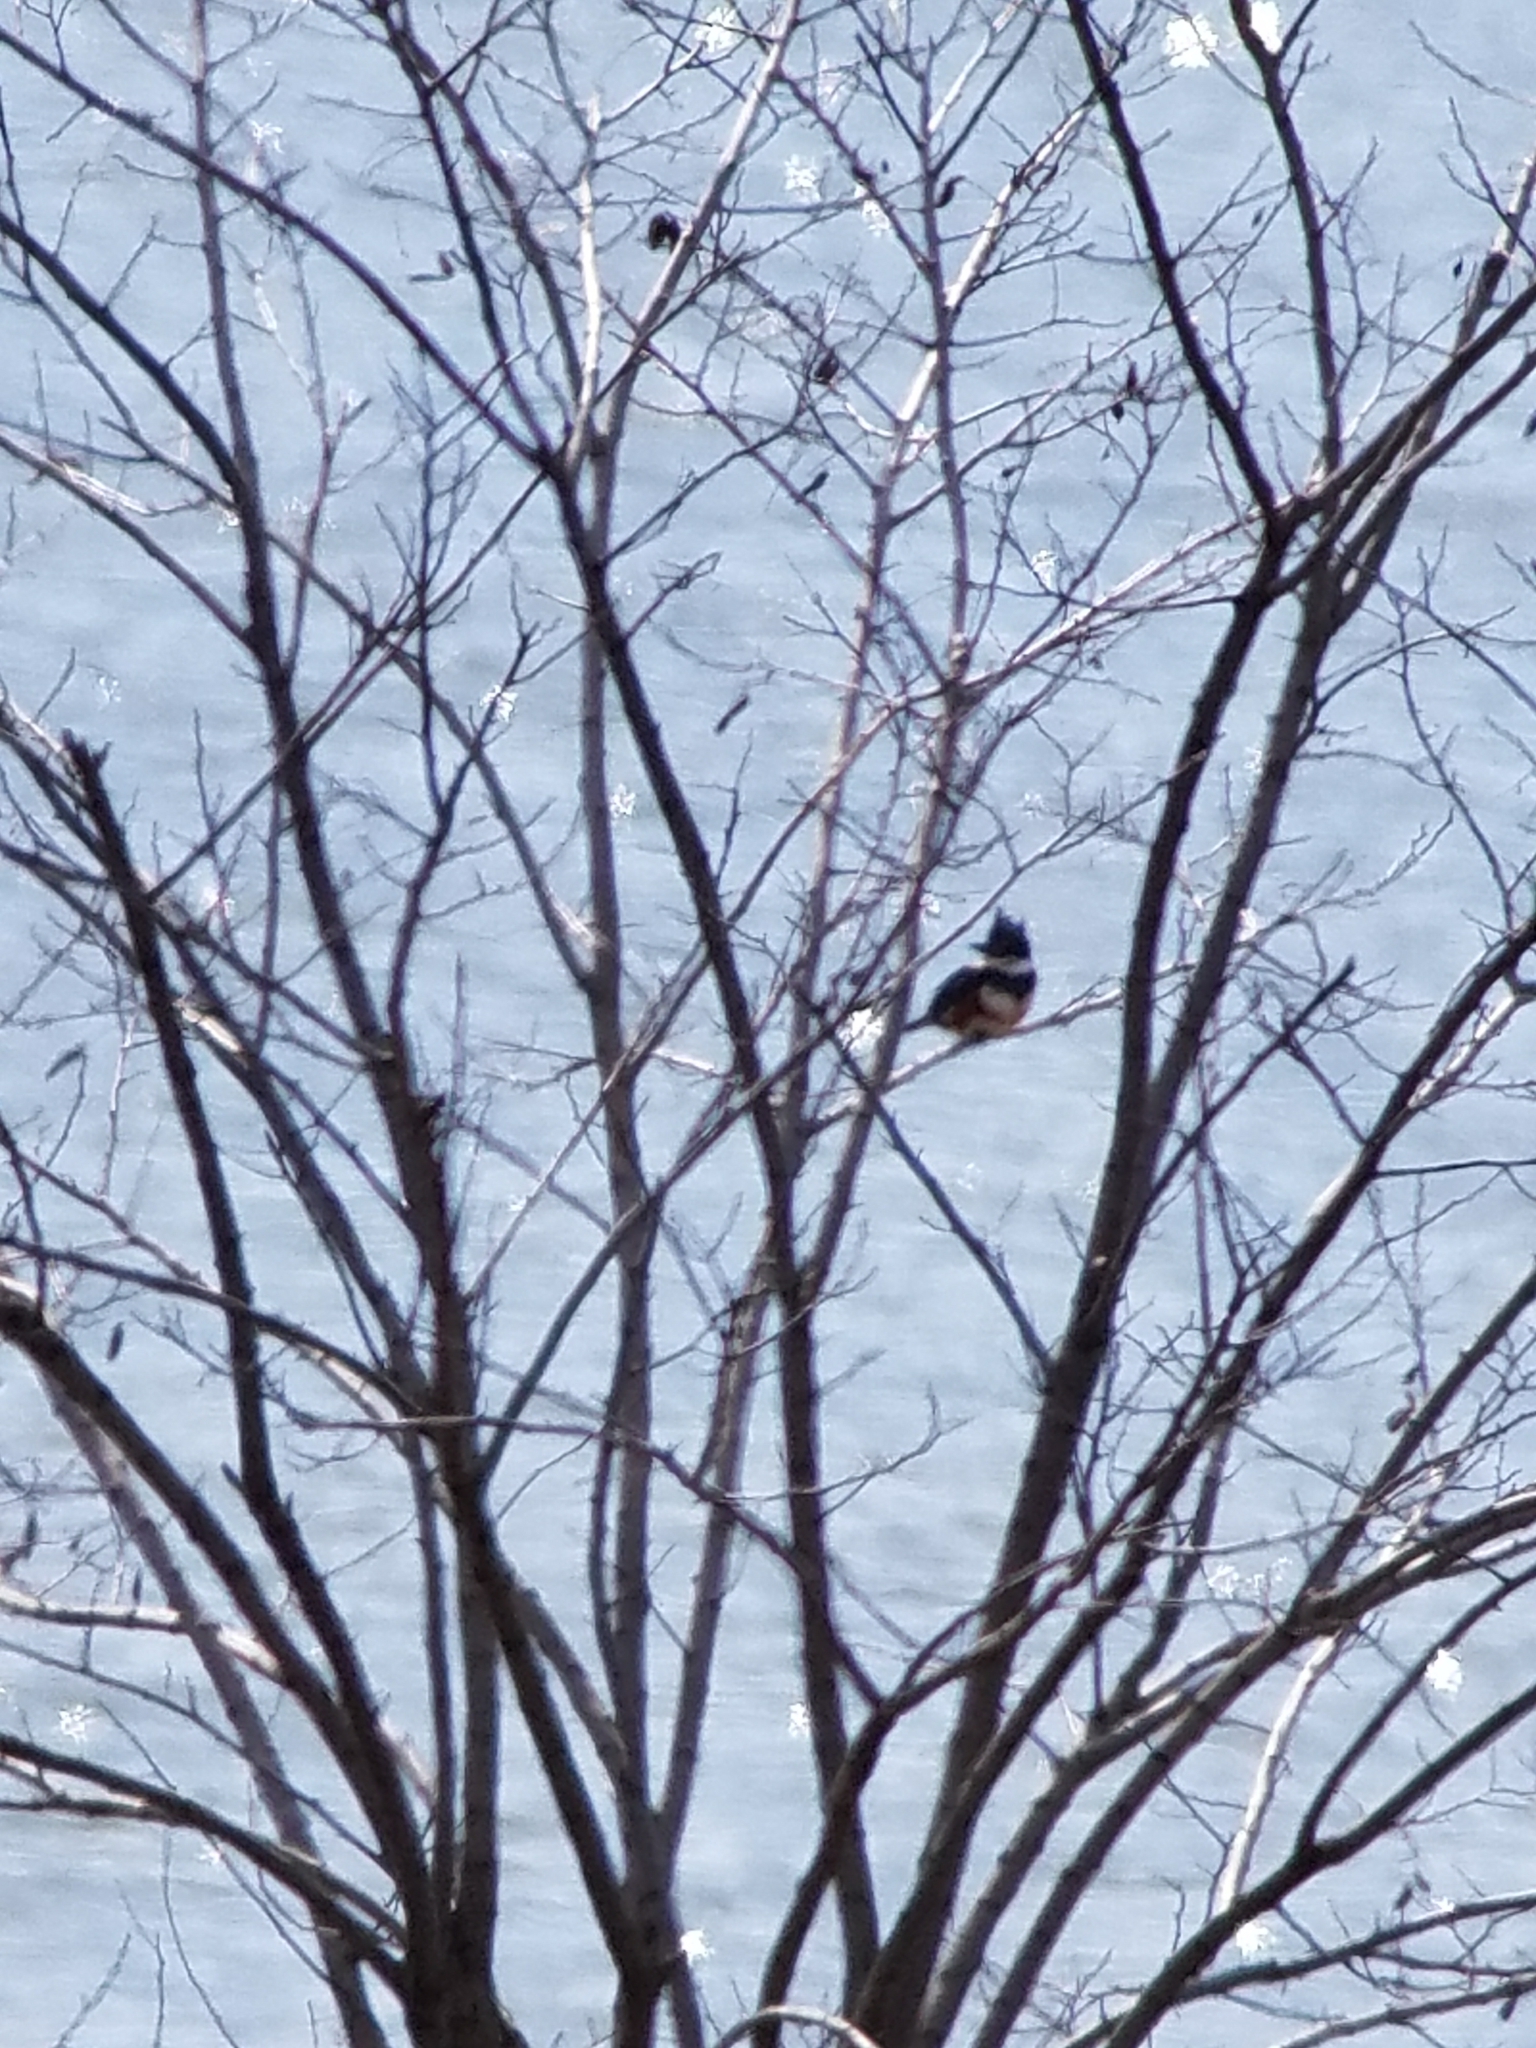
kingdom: Animalia
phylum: Chordata
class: Aves
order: Coraciiformes
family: Alcedinidae
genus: Megaceryle
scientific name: Megaceryle alcyon
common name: Belted kingfisher
